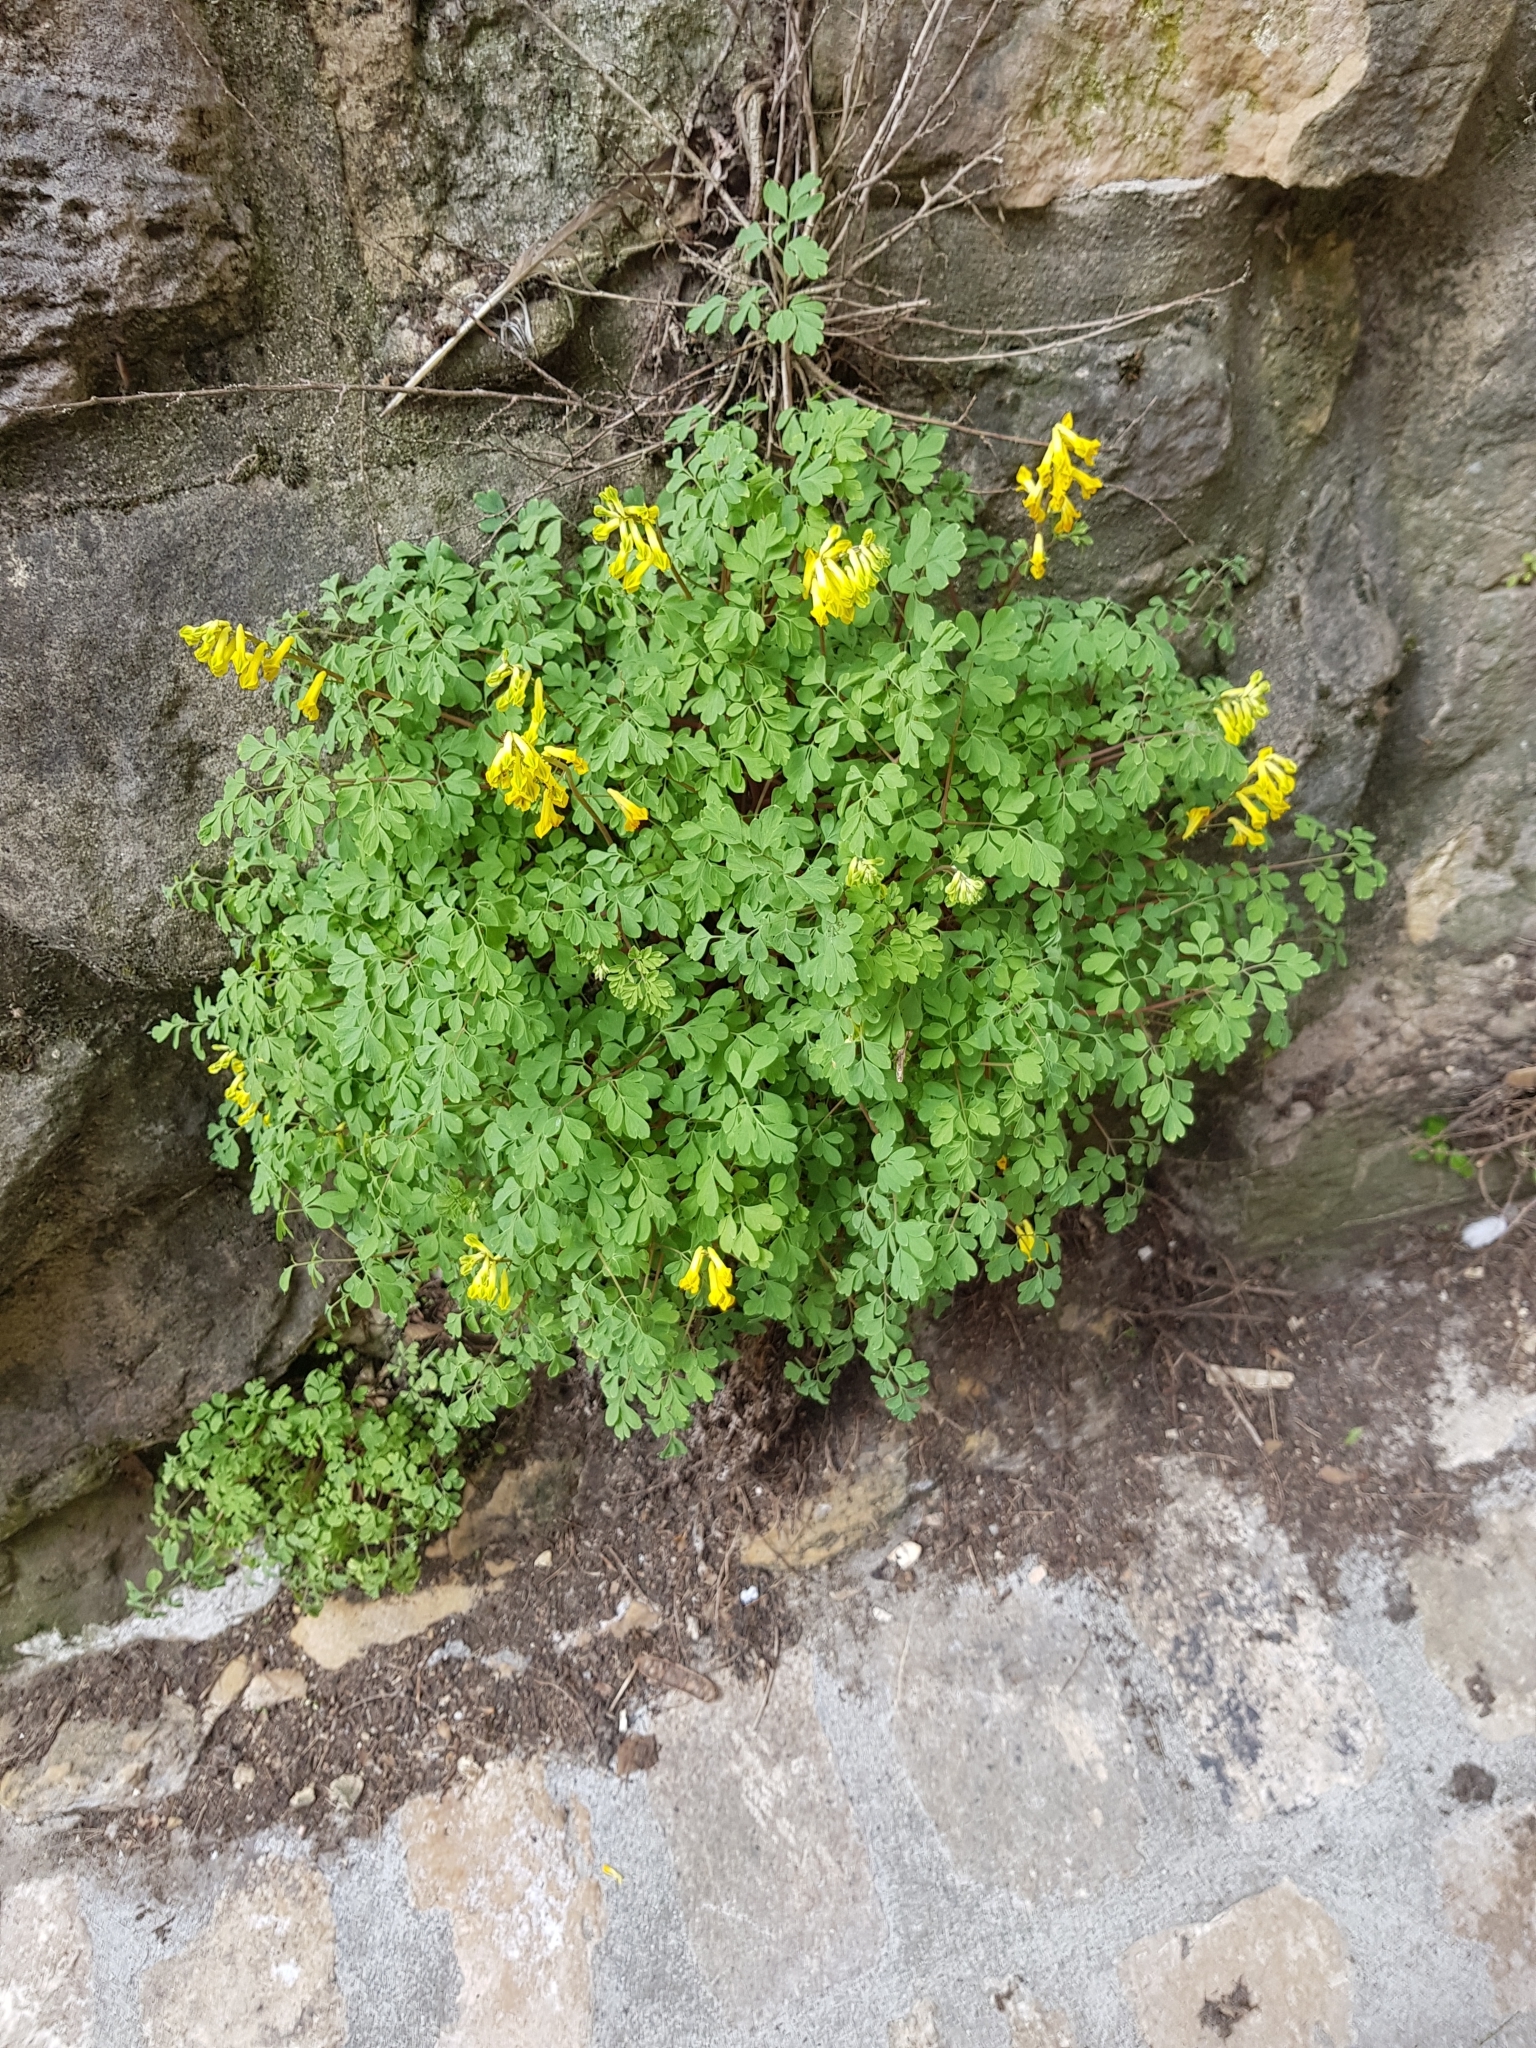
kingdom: Plantae
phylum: Tracheophyta
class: Magnoliopsida
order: Ranunculales
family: Papaveraceae
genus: Pseudofumaria
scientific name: Pseudofumaria lutea
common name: Yellow corydalis
